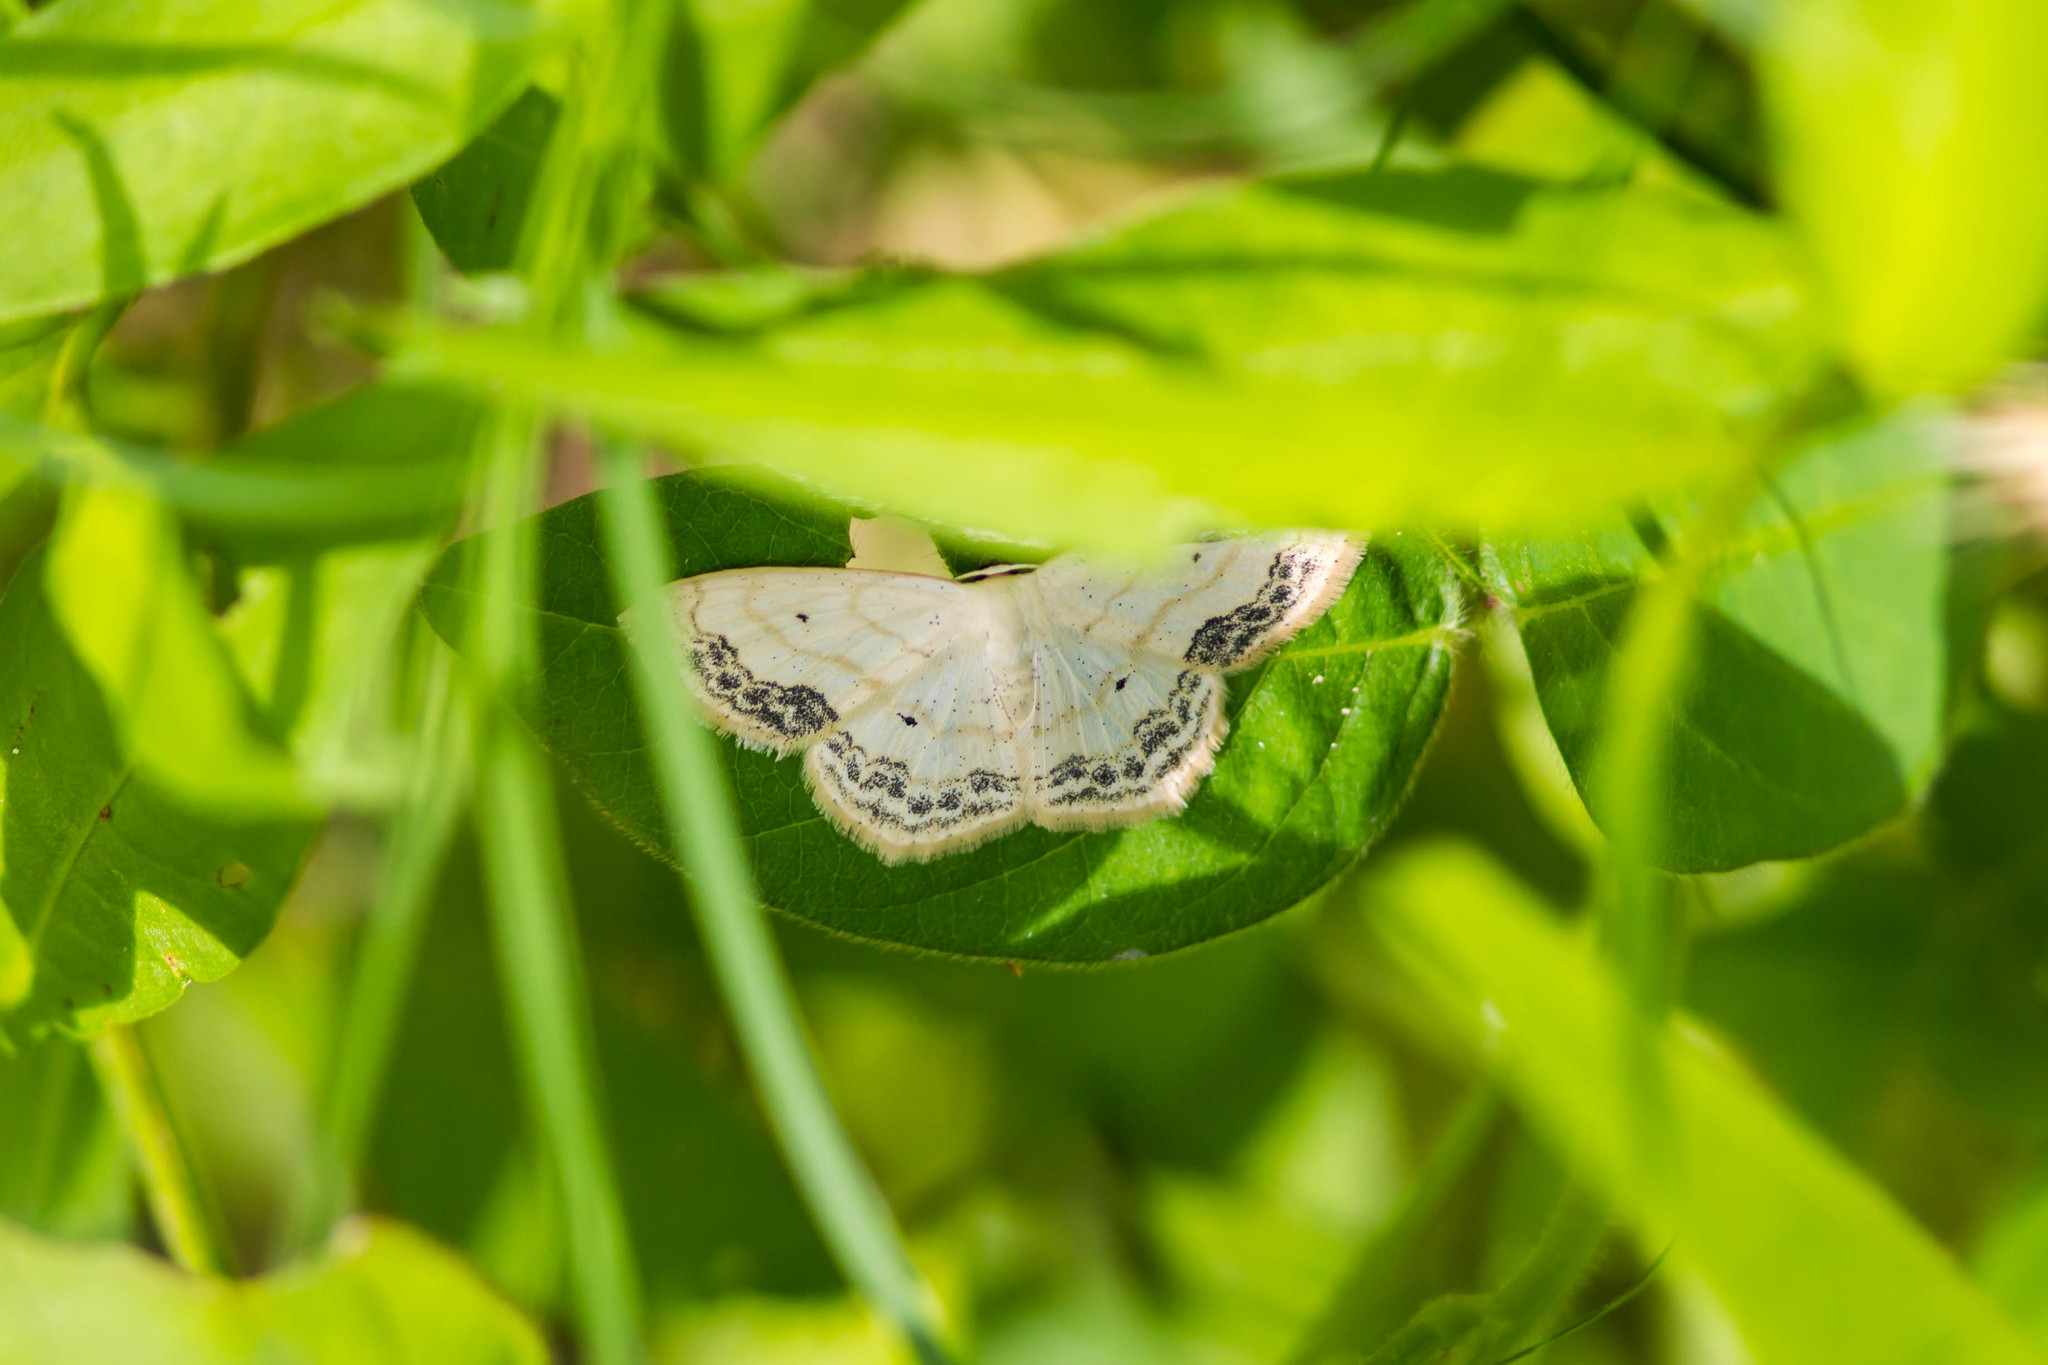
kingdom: Animalia
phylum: Arthropoda
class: Insecta
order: Lepidoptera
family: Geometridae
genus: Scopula
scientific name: Scopula limboundata
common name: Large lace border
